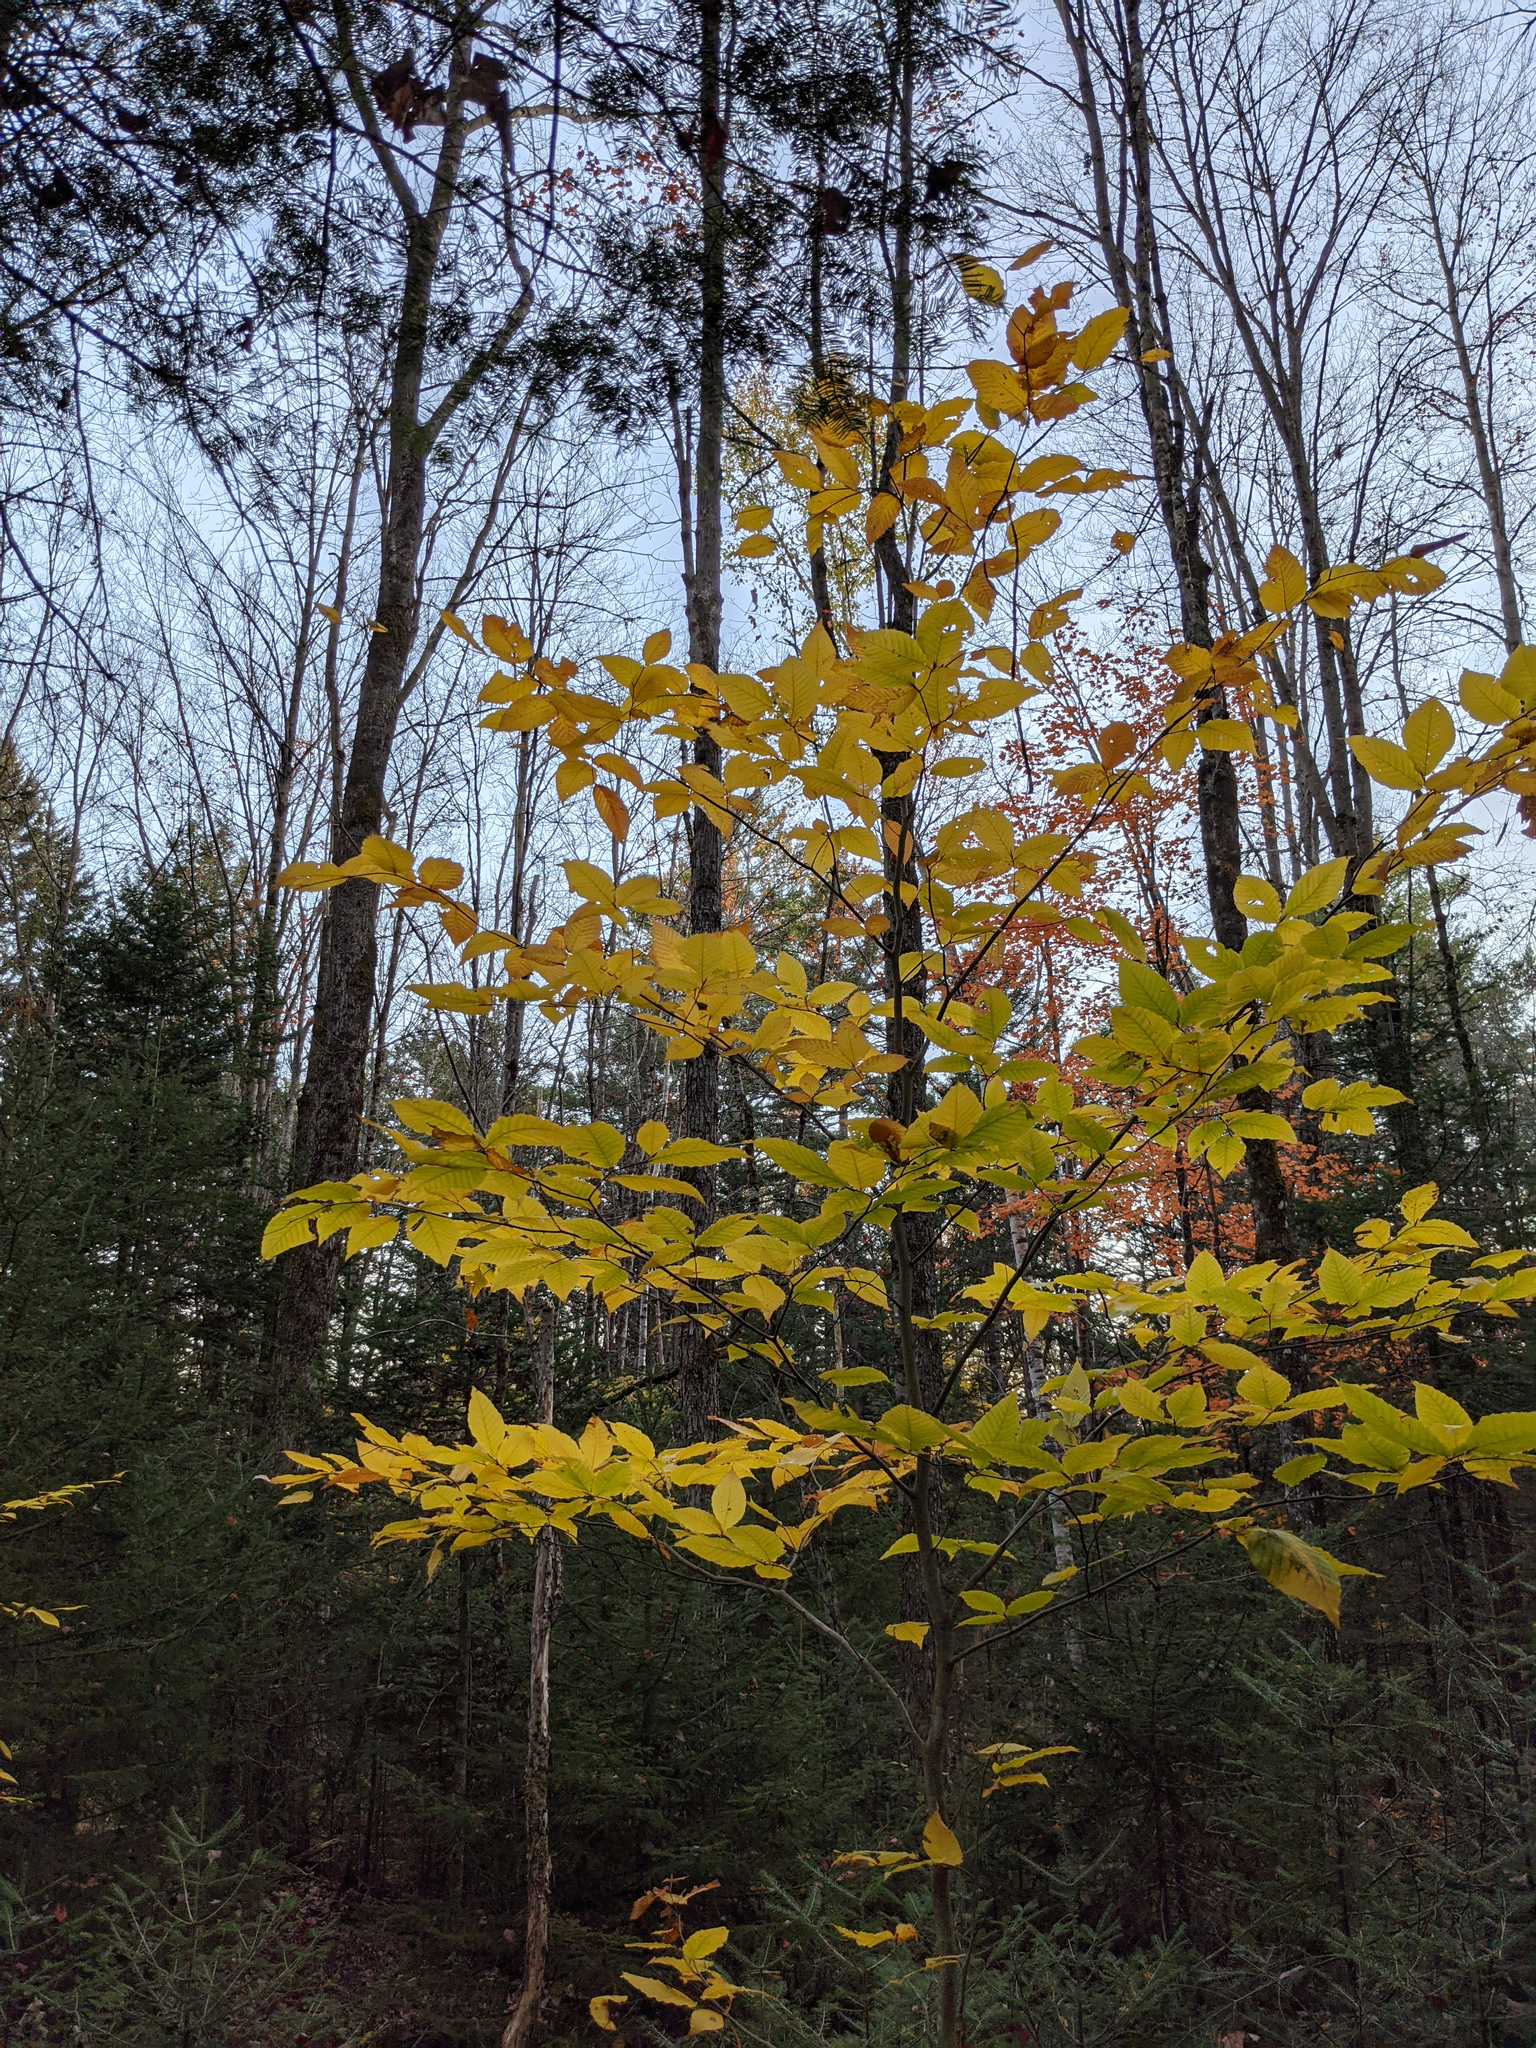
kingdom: Plantae
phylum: Tracheophyta
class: Magnoliopsida
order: Fagales
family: Fagaceae
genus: Fagus
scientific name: Fagus grandifolia
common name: American beech
